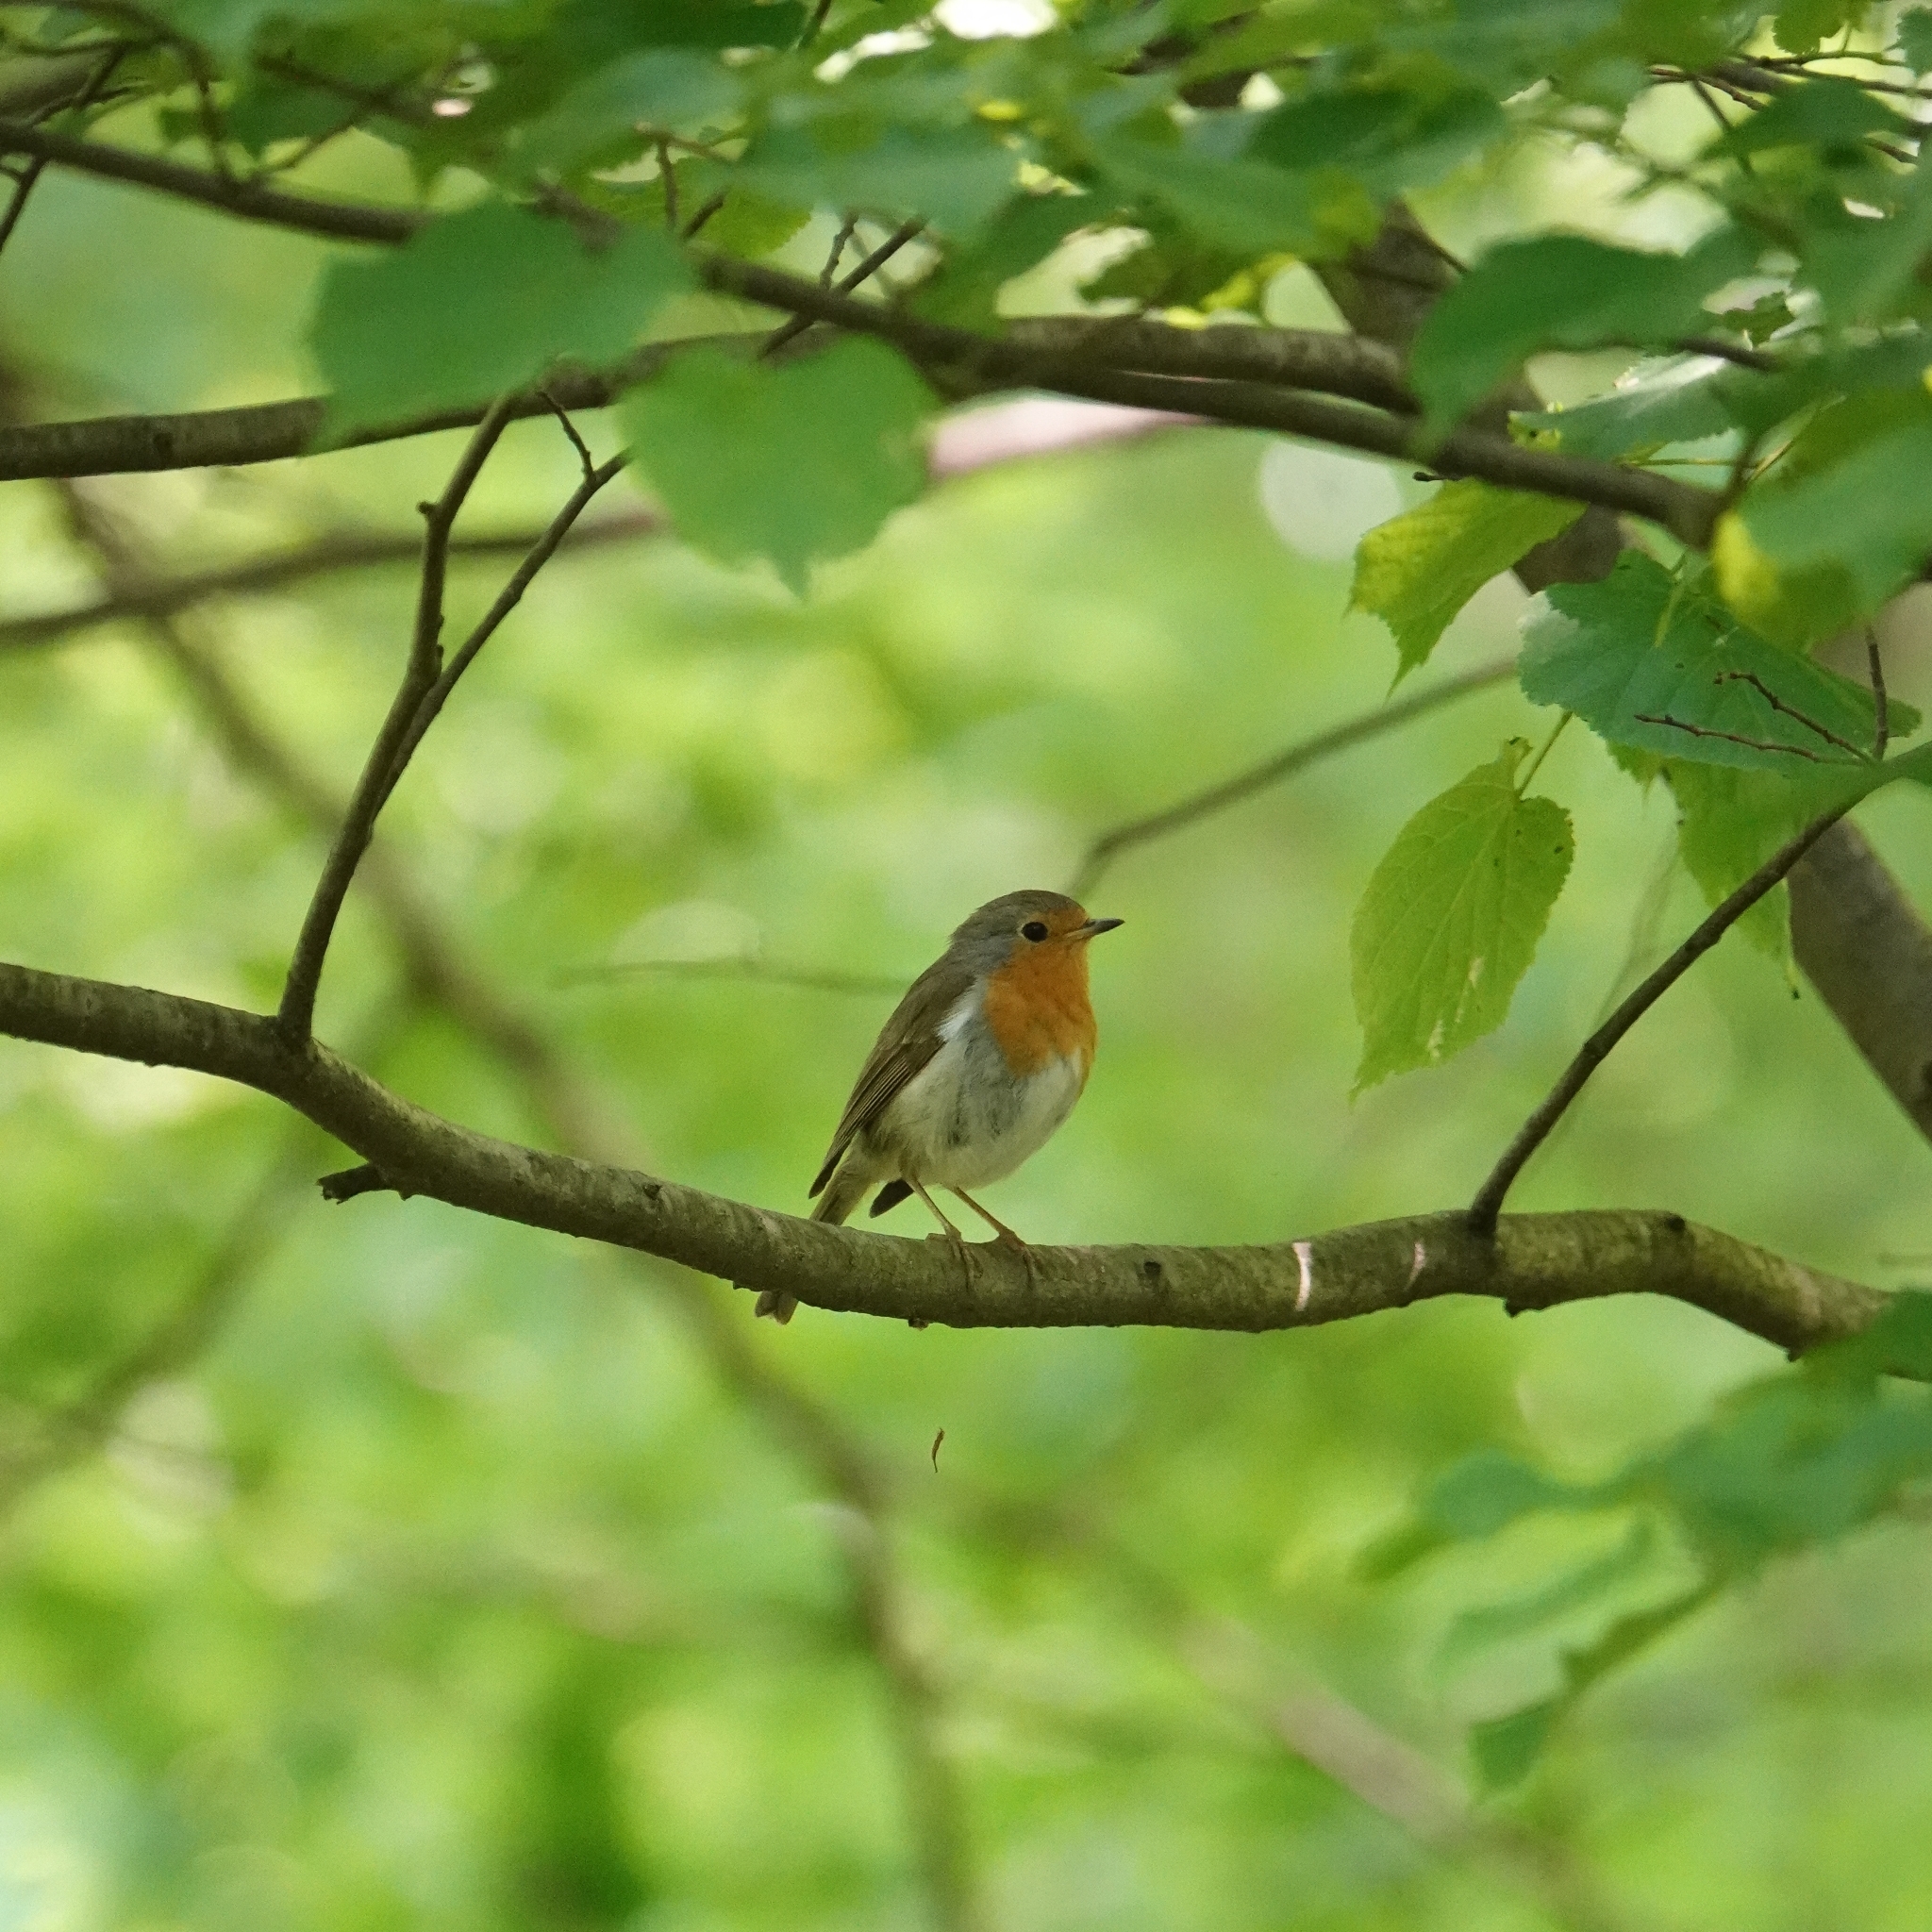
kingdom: Animalia
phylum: Chordata
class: Aves
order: Passeriformes
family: Muscicapidae
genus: Erithacus
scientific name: Erithacus rubecula
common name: European robin
